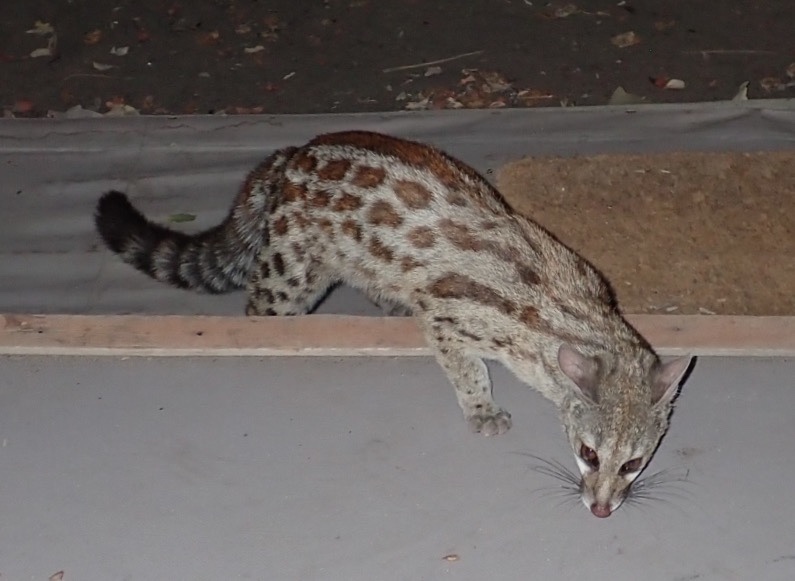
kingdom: Animalia
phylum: Chordata
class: Mammalia
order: Carnivora
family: Viverridae
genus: Genetta
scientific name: Genetta maculata
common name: Rusty-spotted genet
